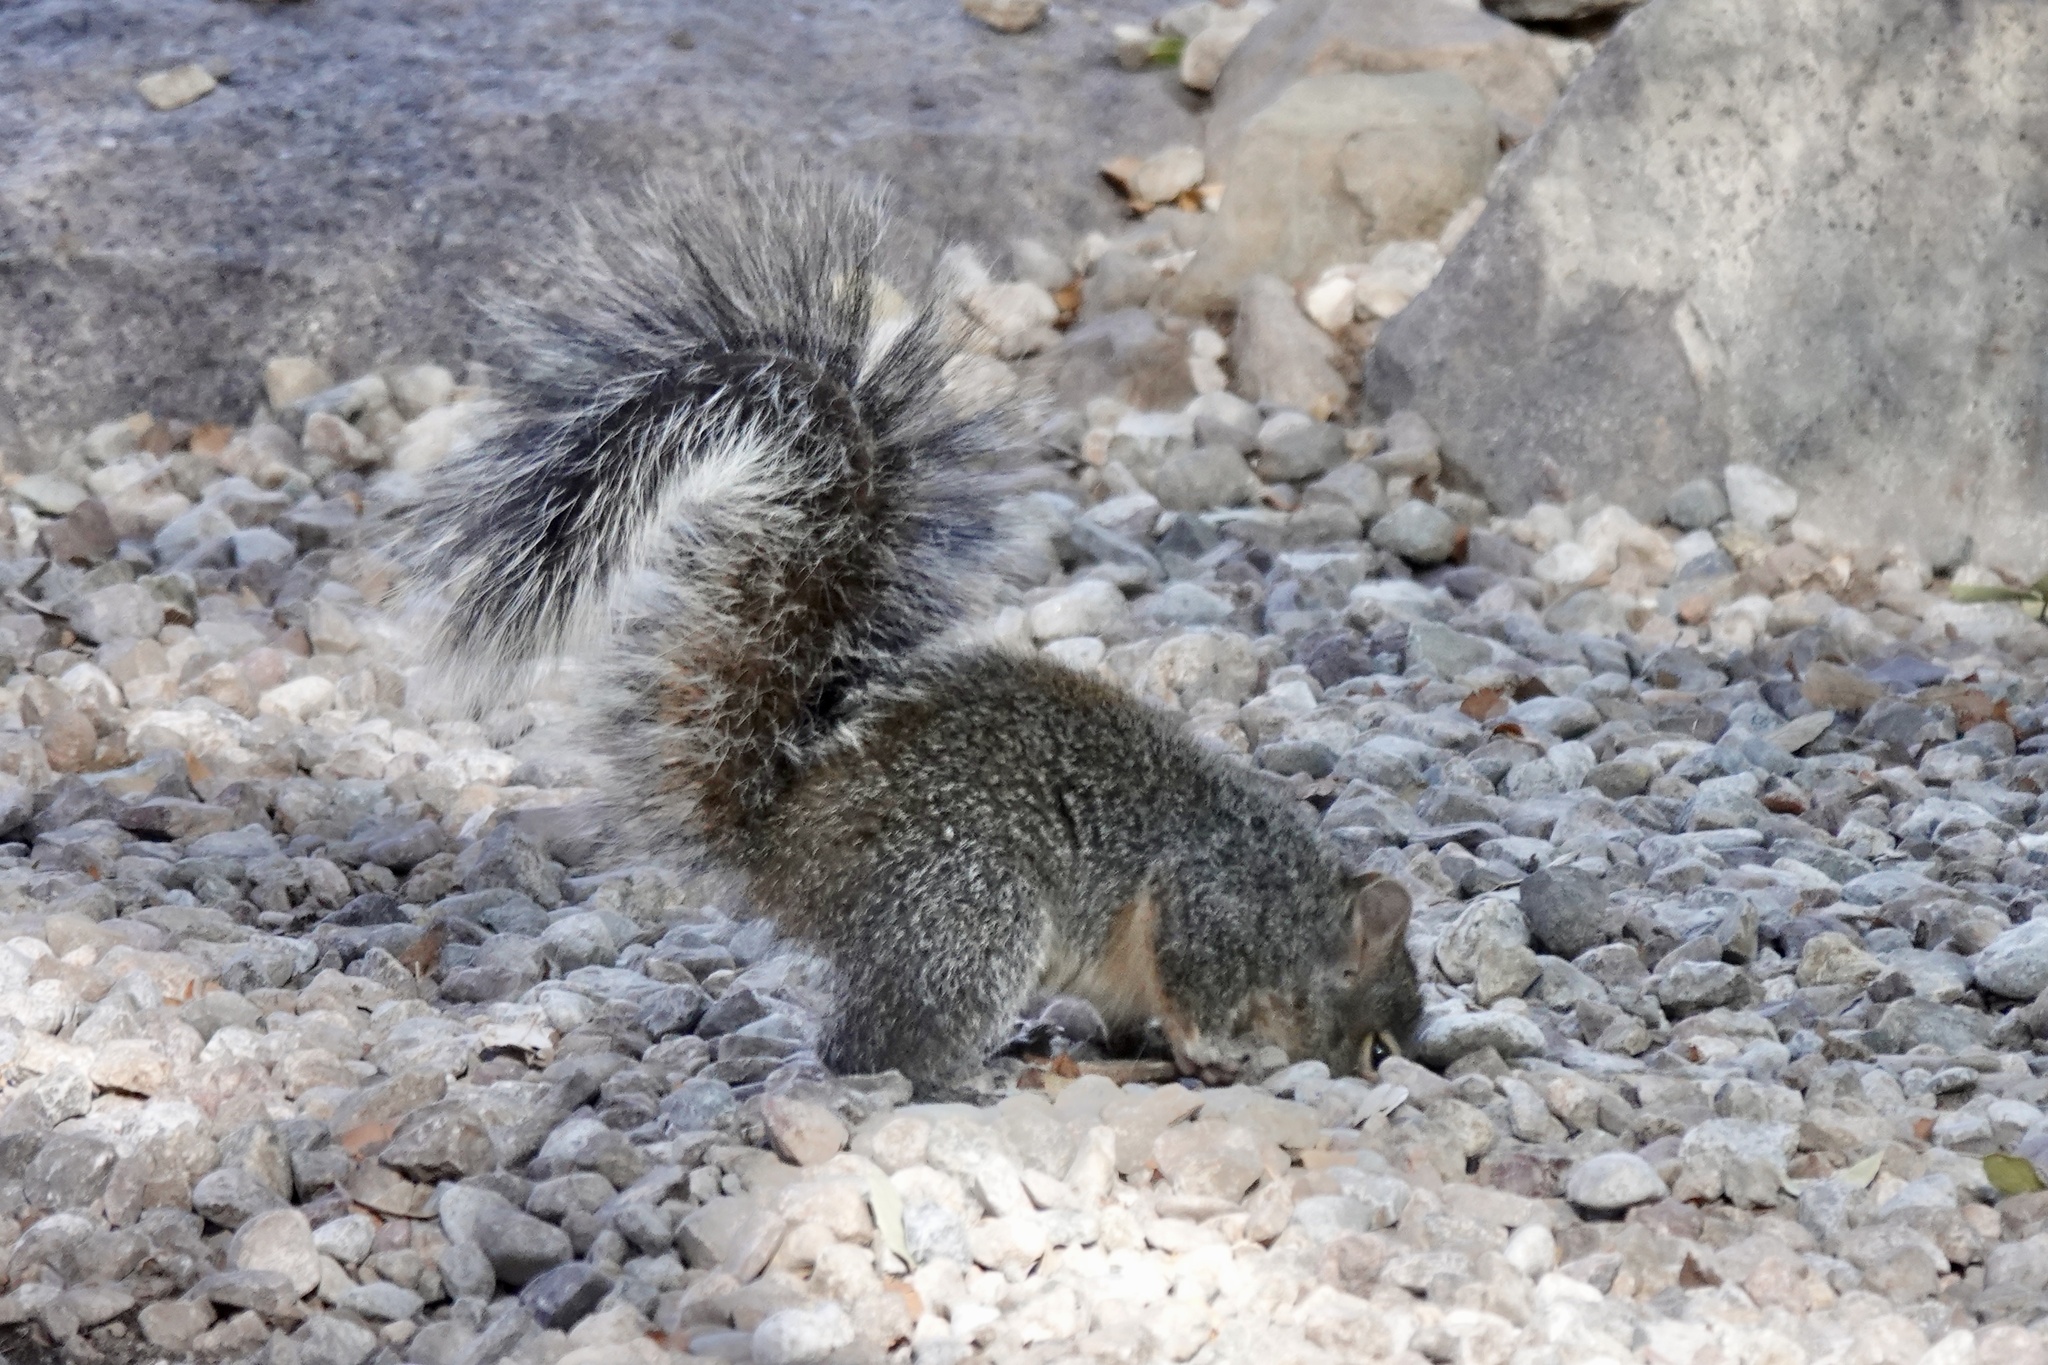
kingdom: Animalia
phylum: Chordata
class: Mammalia
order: Rodentia
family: Sciuridae
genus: Sciurus
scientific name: Sciurus arizonensis
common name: Arizona gray squirrel
